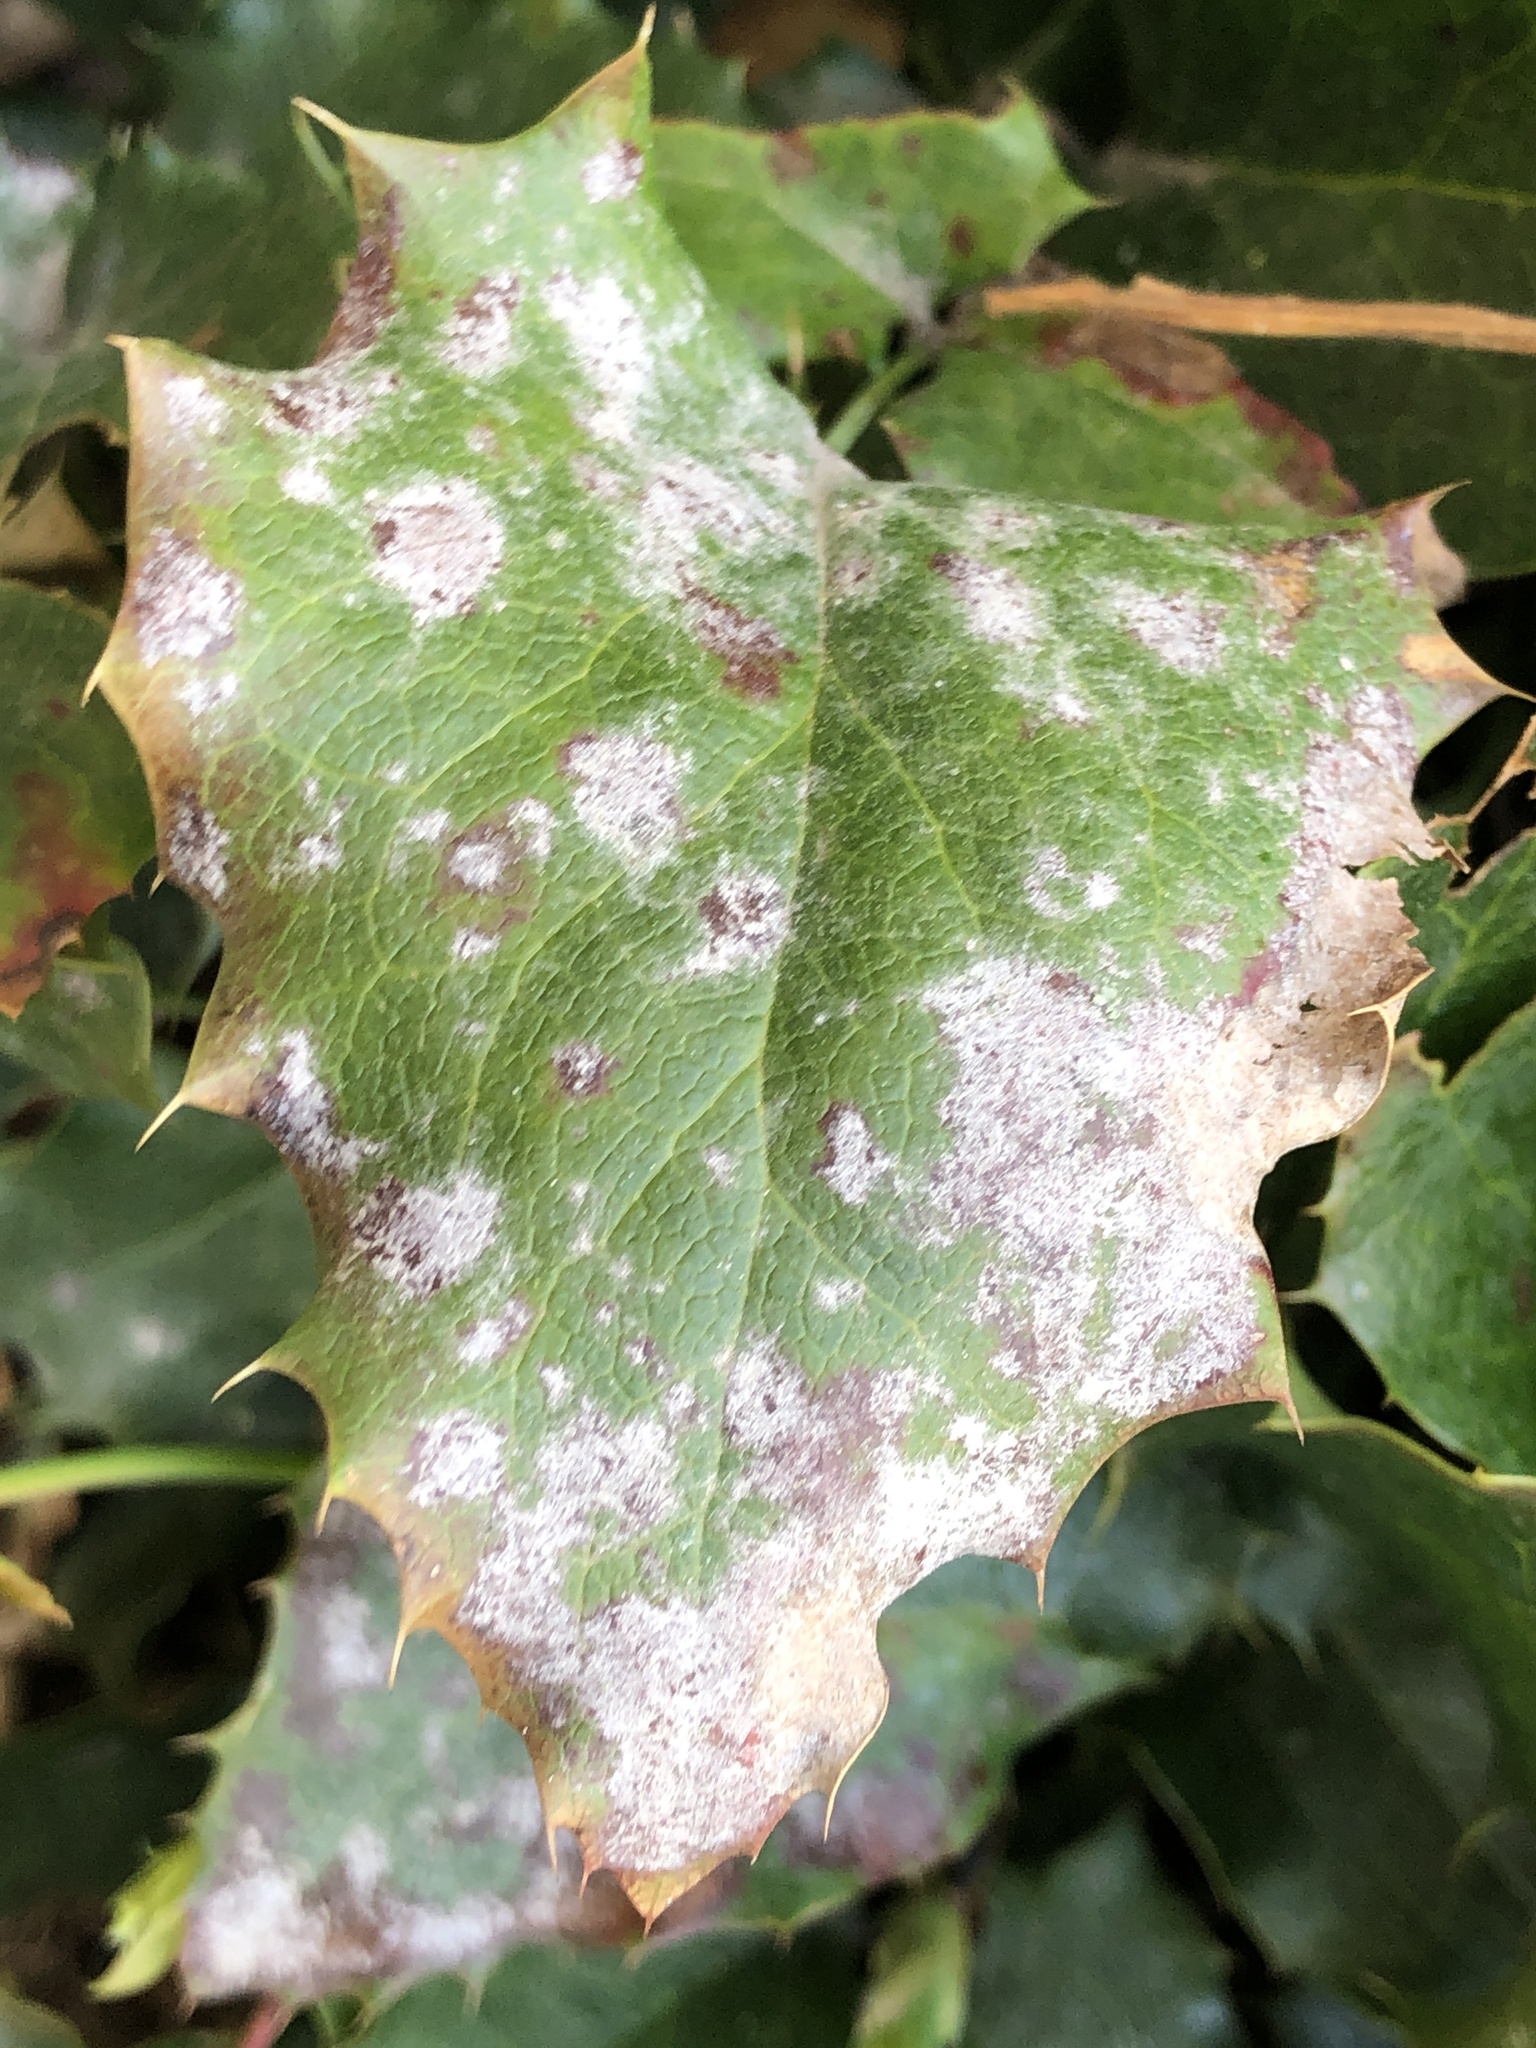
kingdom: Fungi
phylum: Ascomycota
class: Leotiomycetes
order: Helotiales
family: Erysiphaceae
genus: Erysiphe
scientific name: Erysiphe berberidis
